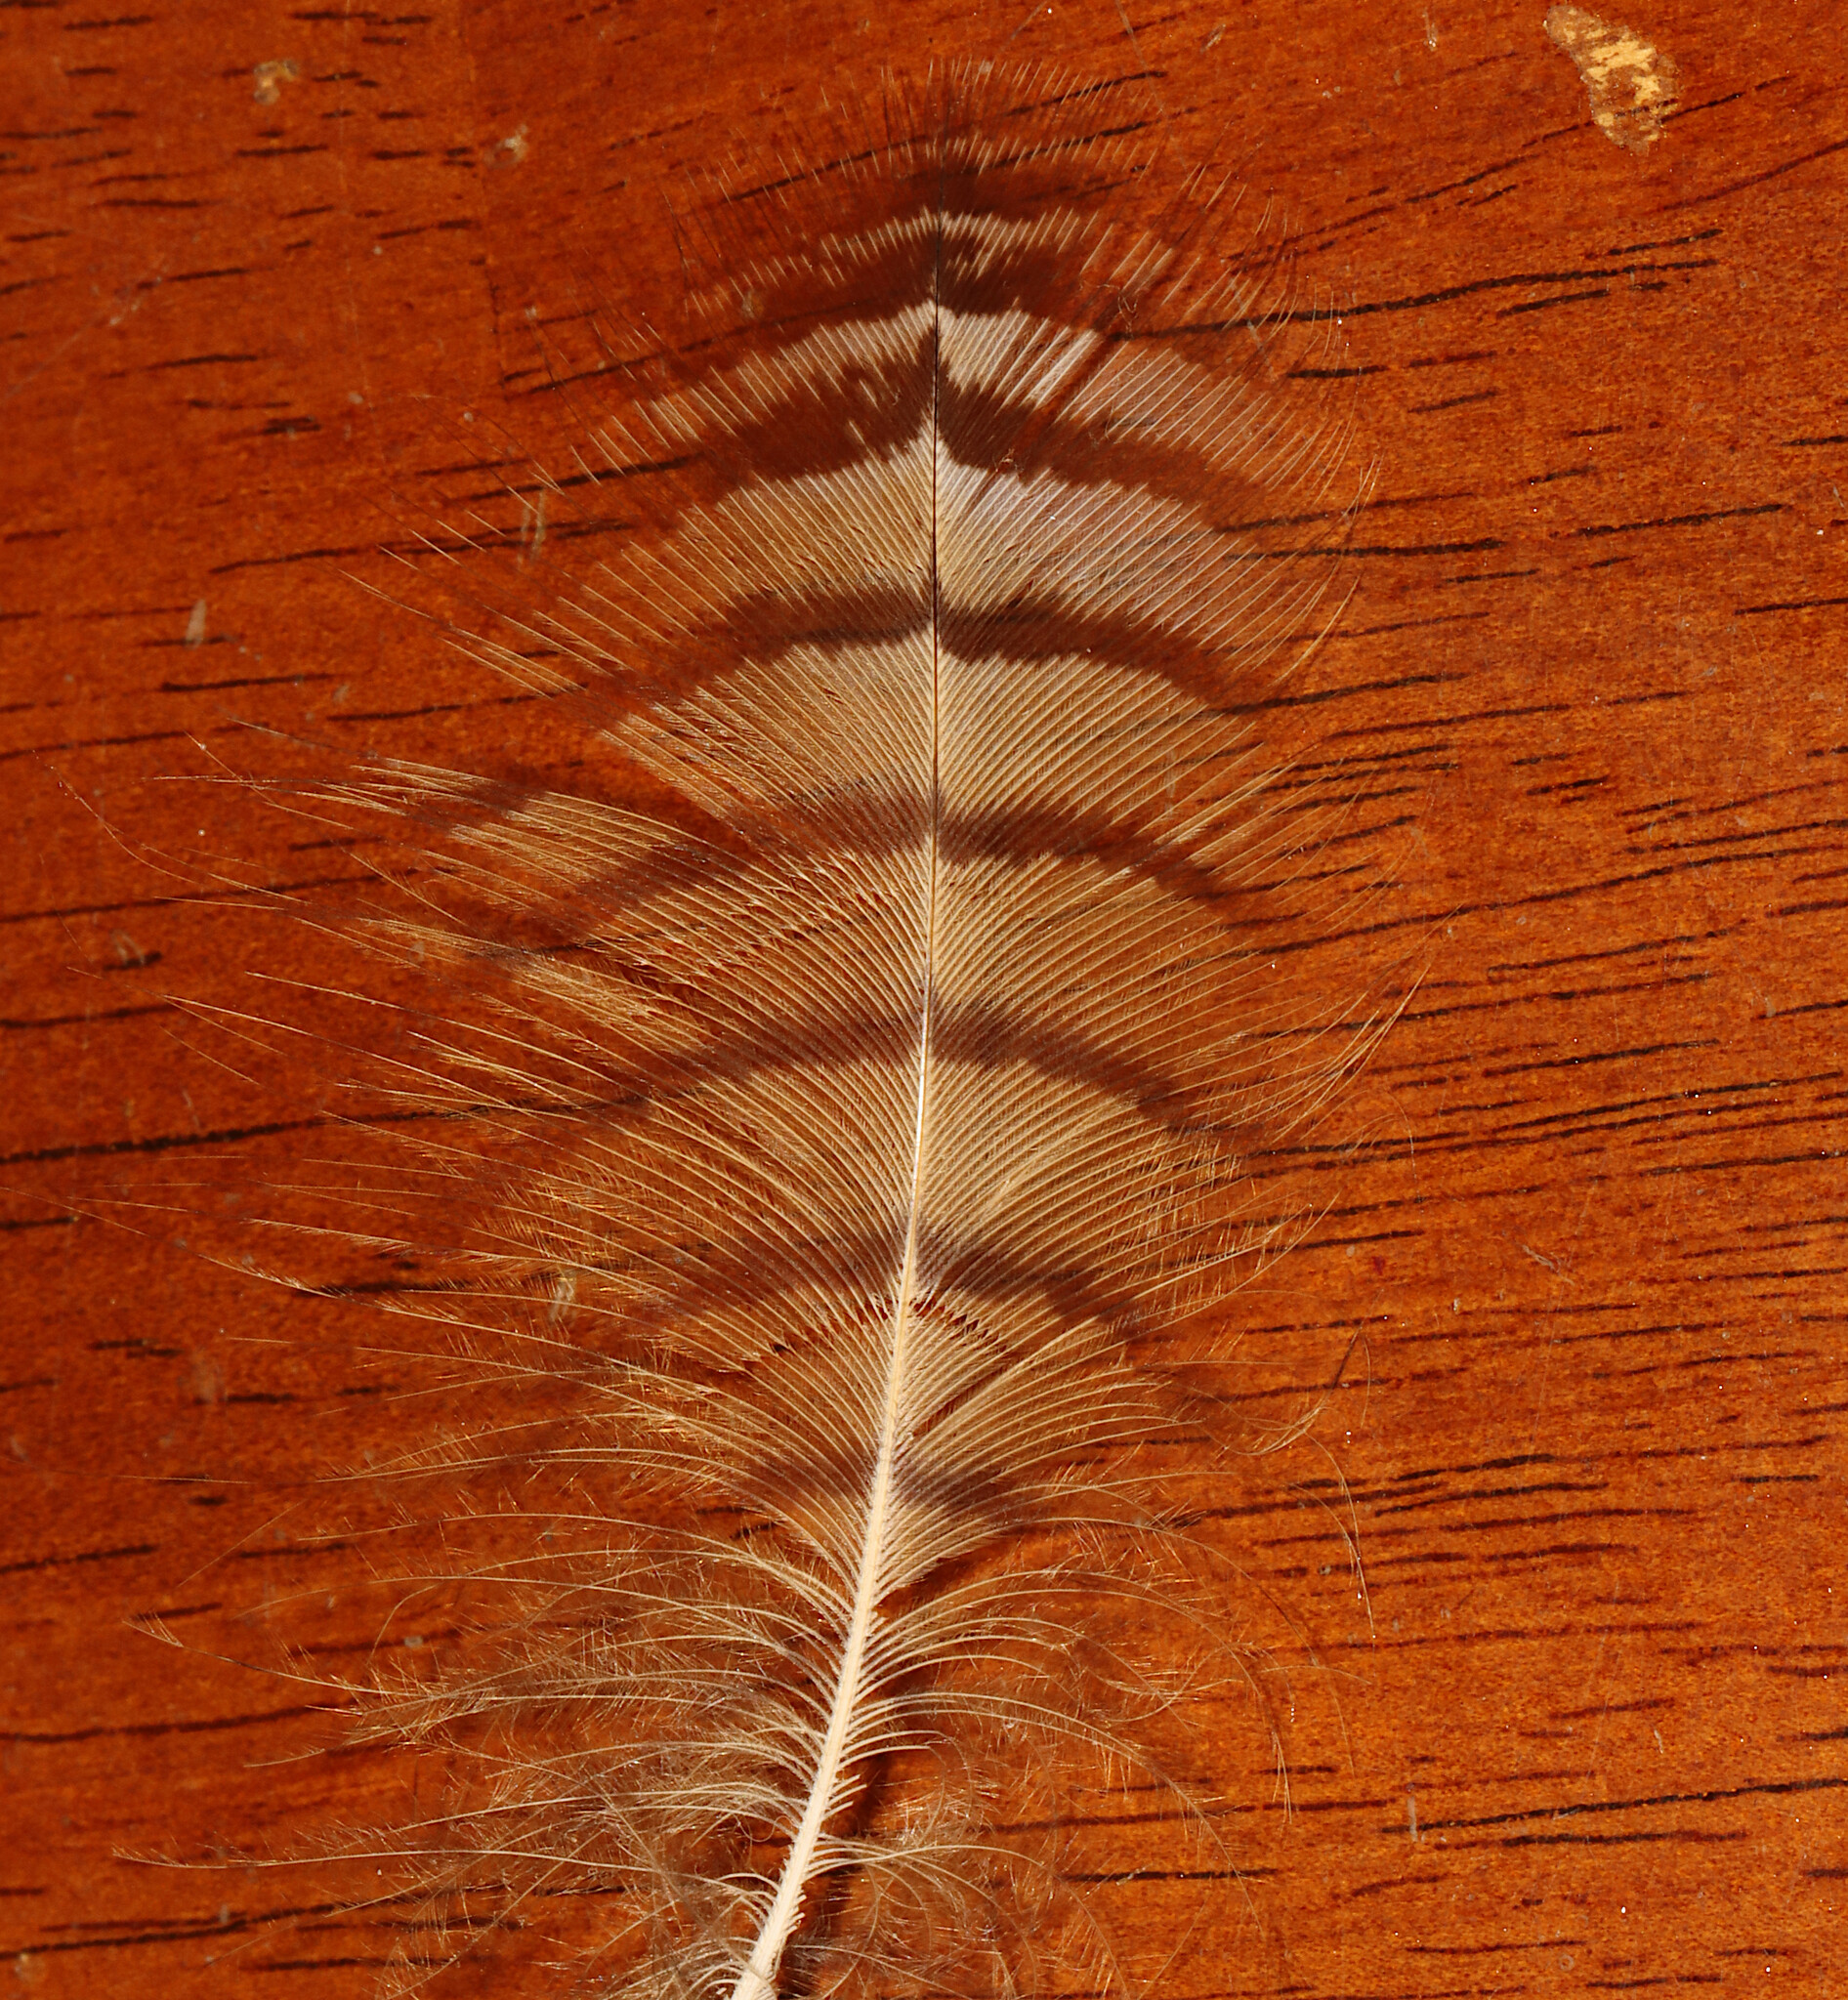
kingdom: Animalia
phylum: Chordata
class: Aves
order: Strigiformes
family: Strigidae
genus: Bubo
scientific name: Bubo virginianus
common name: Great horned owl
